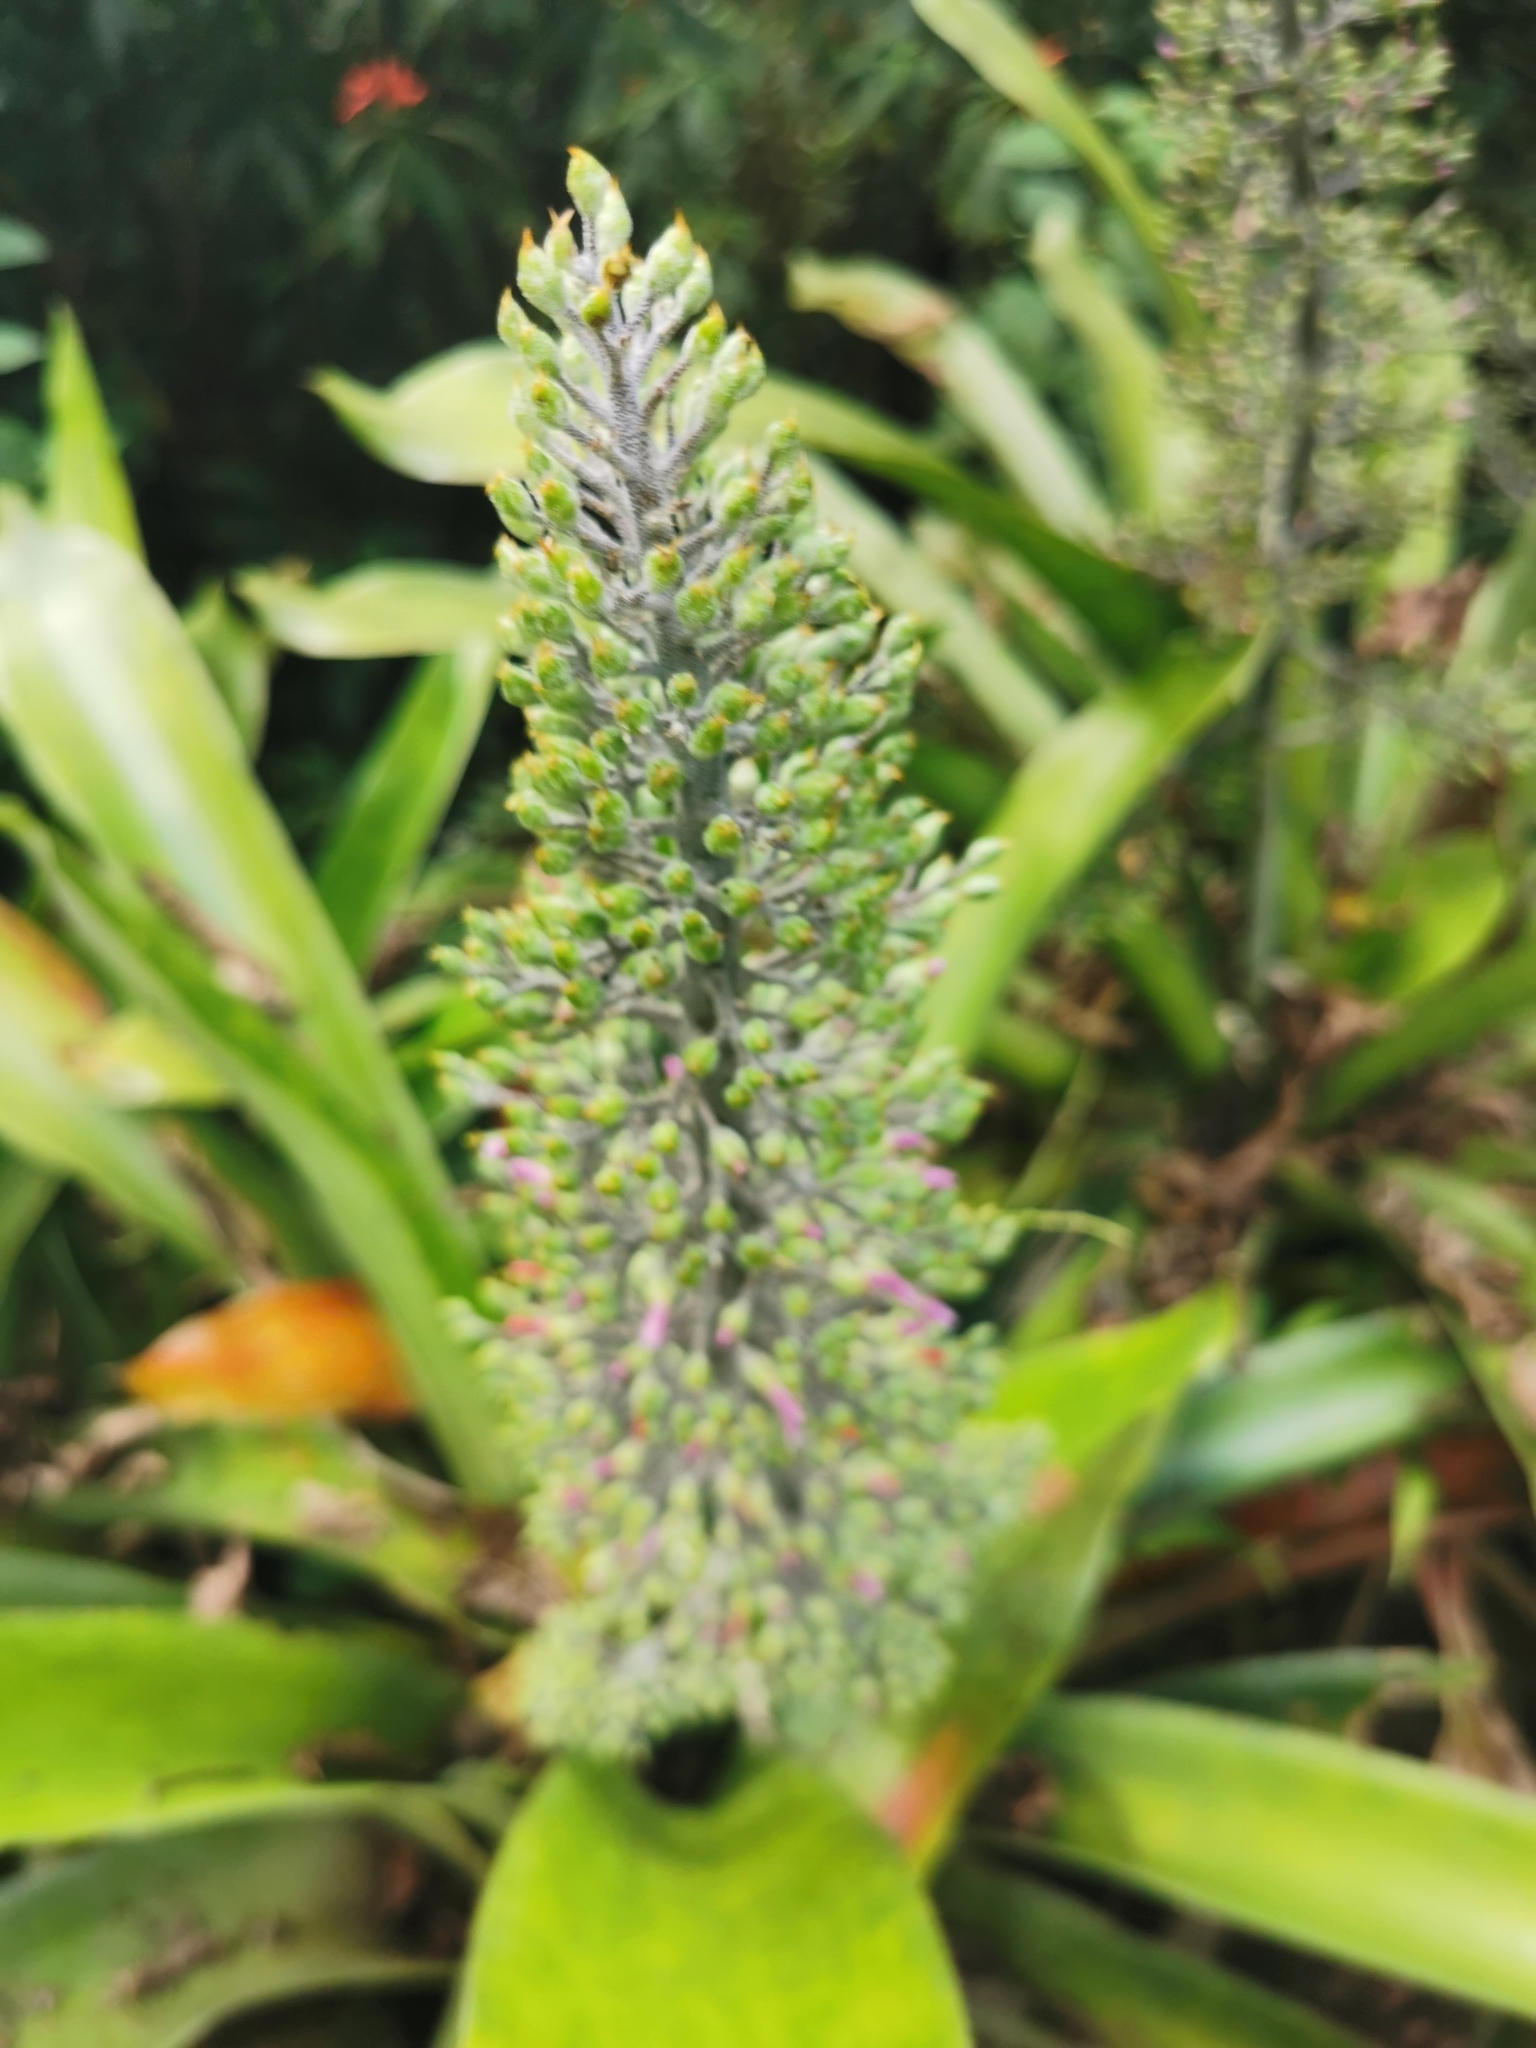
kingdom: Plantae
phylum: Tracheophyta
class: Liliopsida
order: Poales
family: Bromeliaceae
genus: Aechmea
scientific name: Aechmea mexicana
